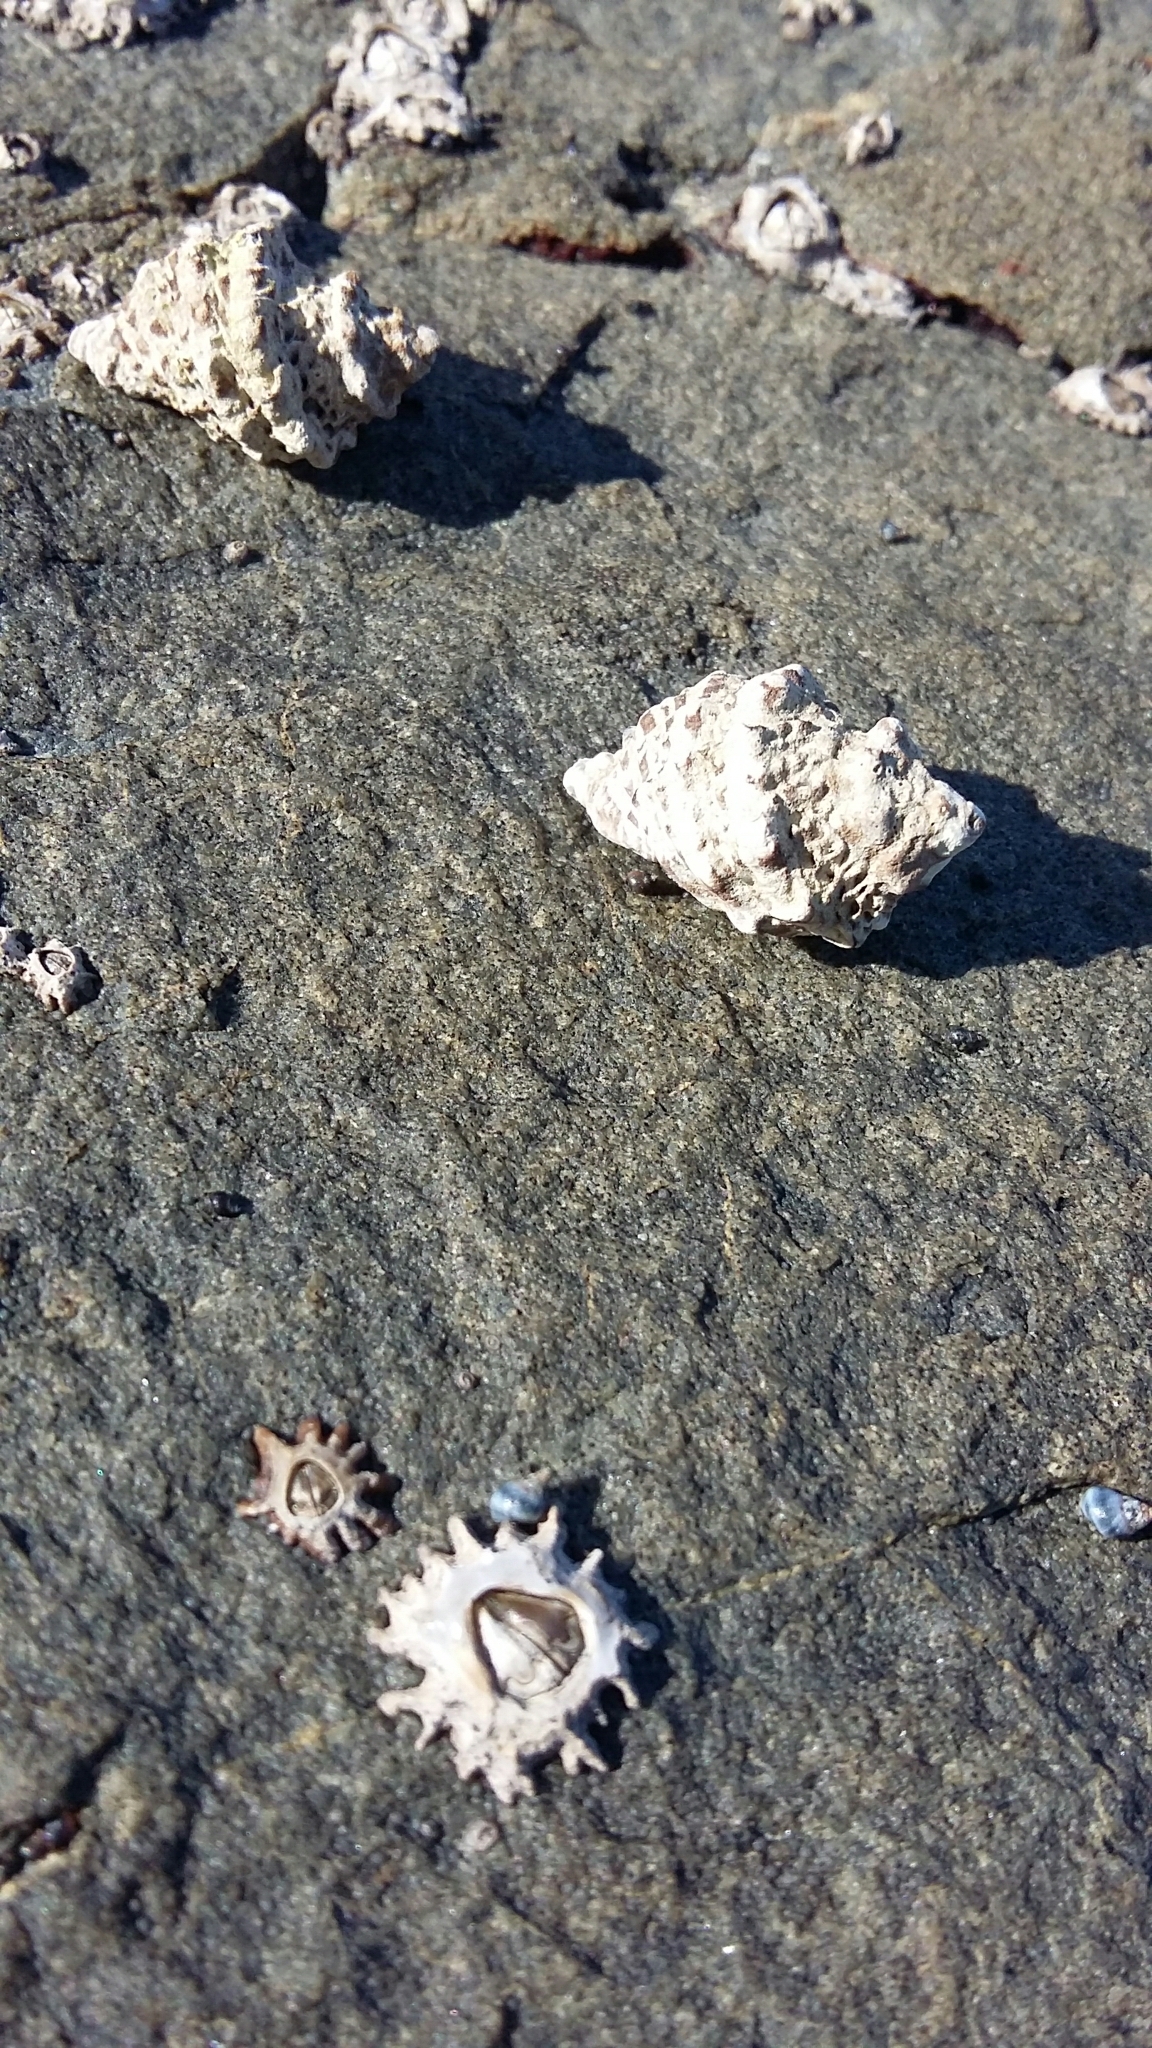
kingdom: Animalia
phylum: Mollusca
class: Gastropoda
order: Neogastropoda
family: Muricidae
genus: Haustrum
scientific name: Haustrum scobina
